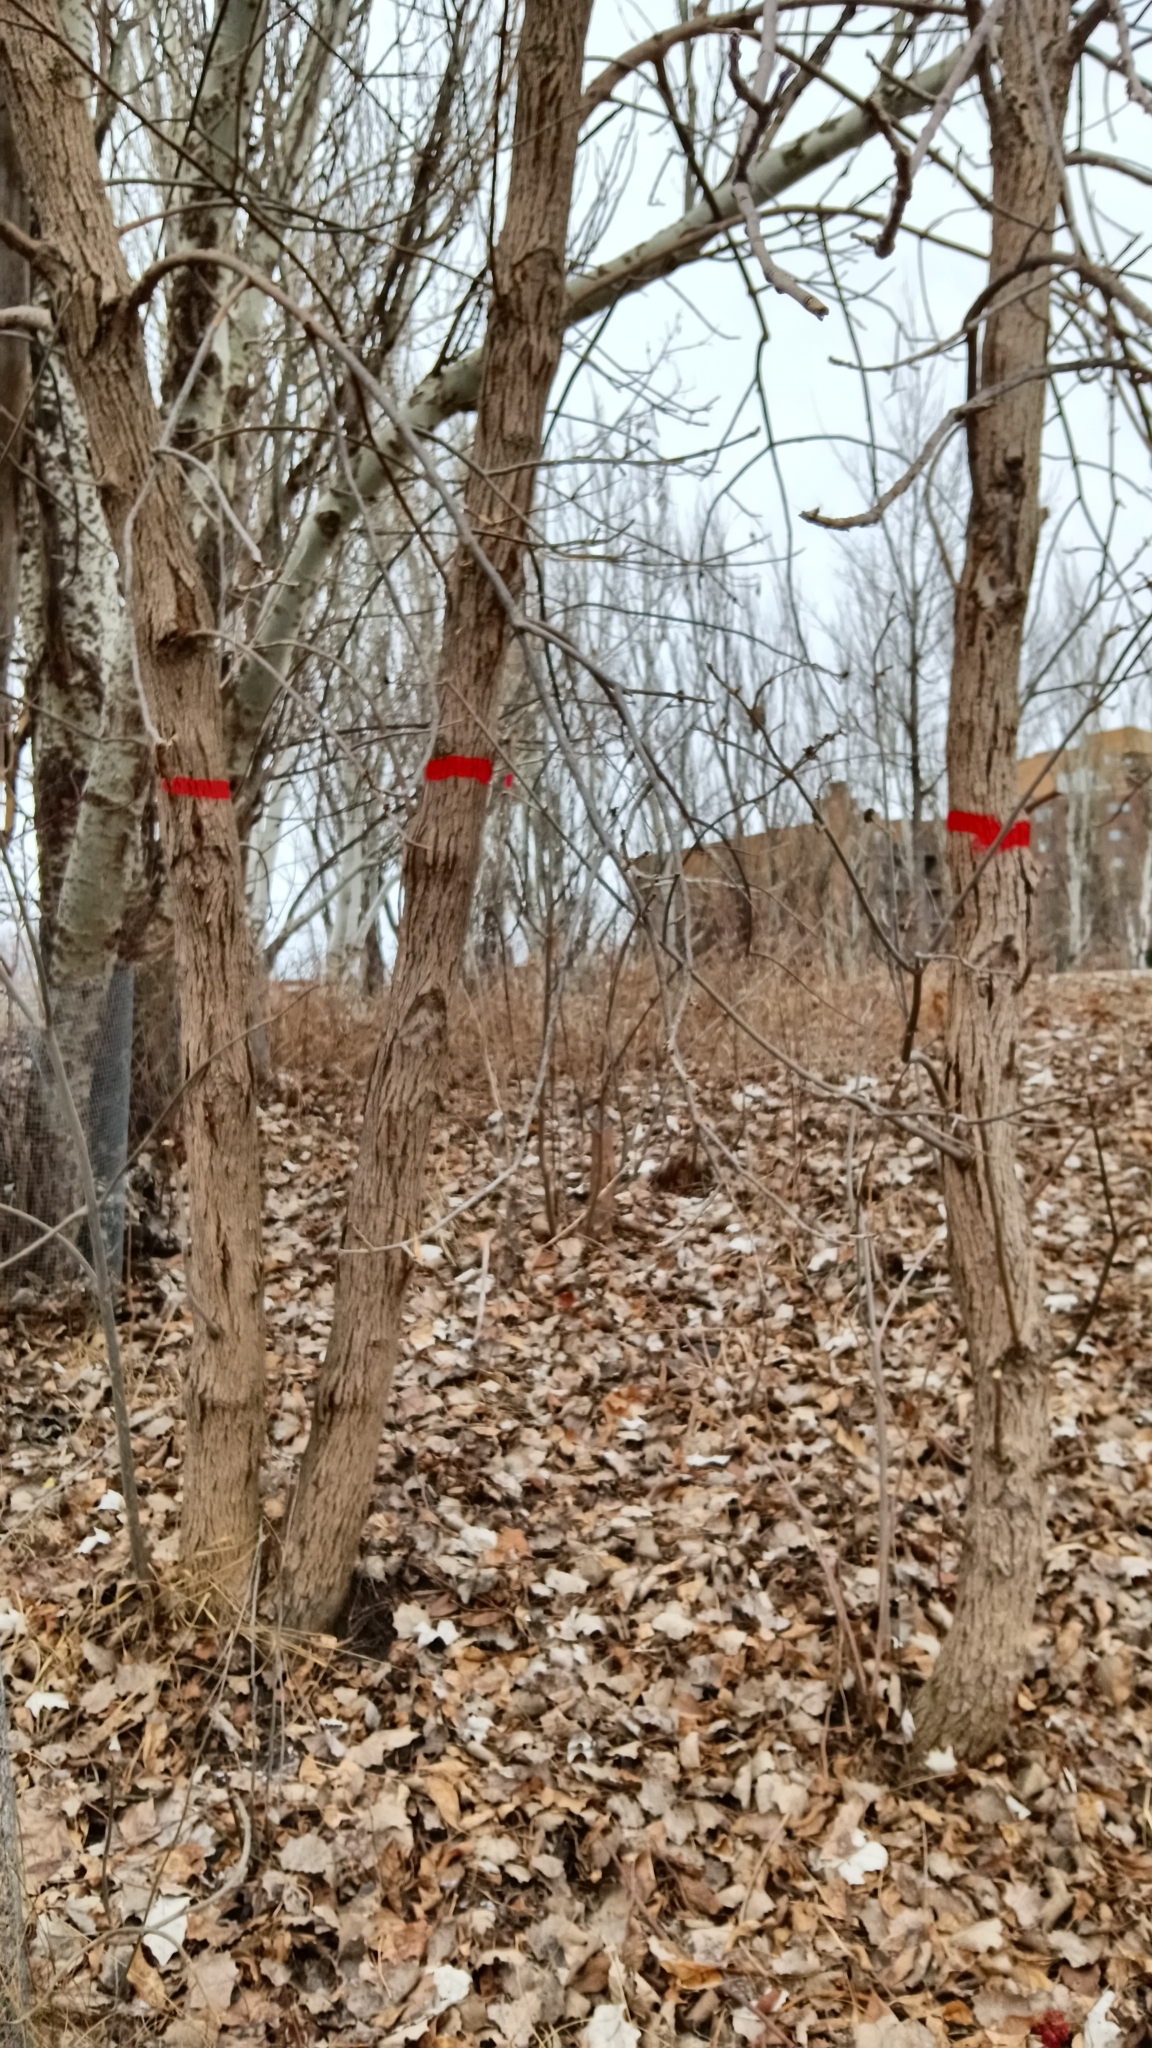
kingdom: Plantae
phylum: Tracheophyta
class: Magnoliopsida
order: Lamiales
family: Oleaceae
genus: Fraxinus
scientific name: Fraxinus pennsylvanica
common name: Green ash
